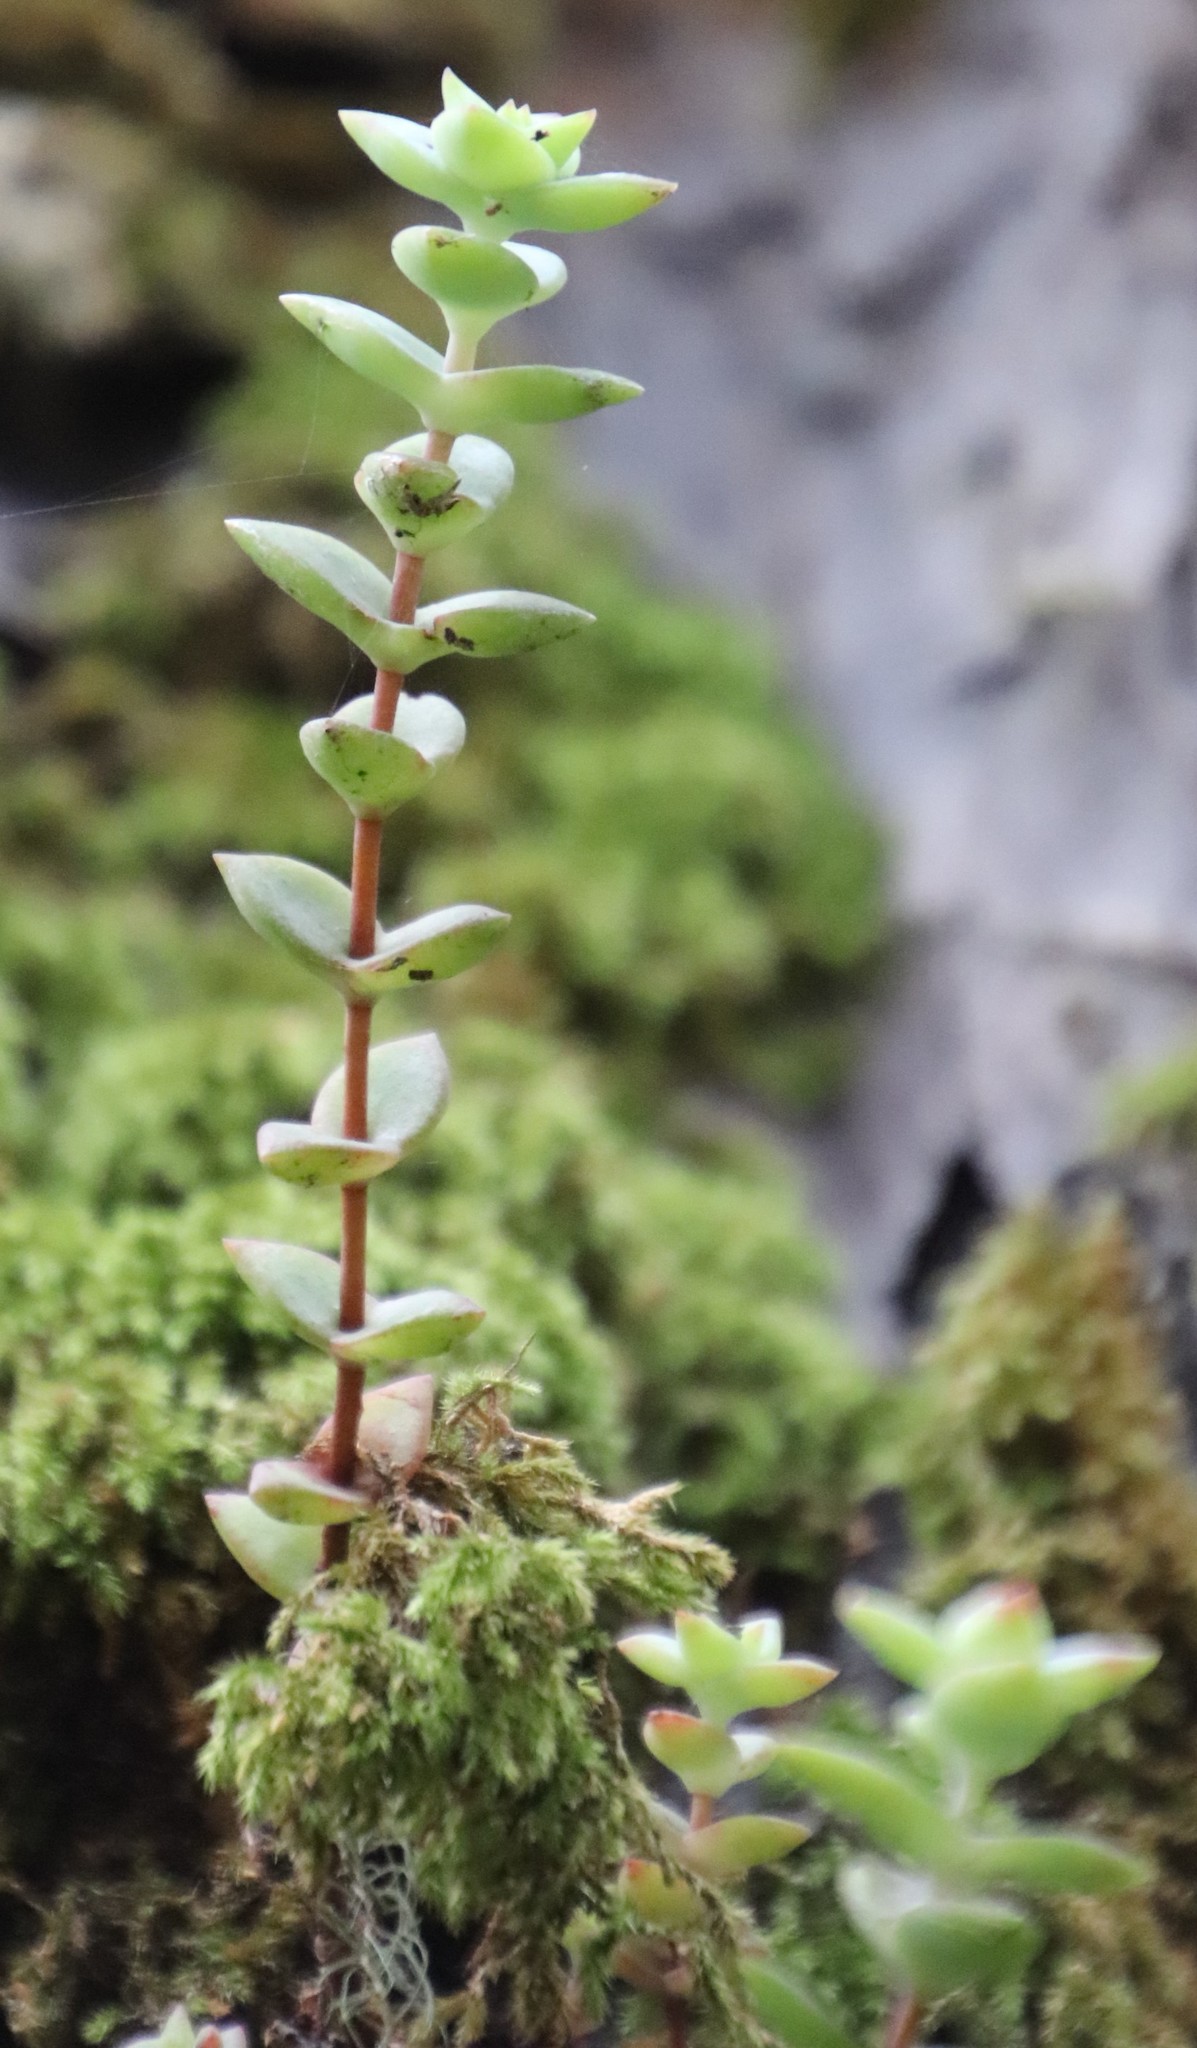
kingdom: Plantae
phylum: Tracheophyta
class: Magnoliopsida
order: Saxifragales
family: Crassulaceae
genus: Crassula
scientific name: Crassula perforata
